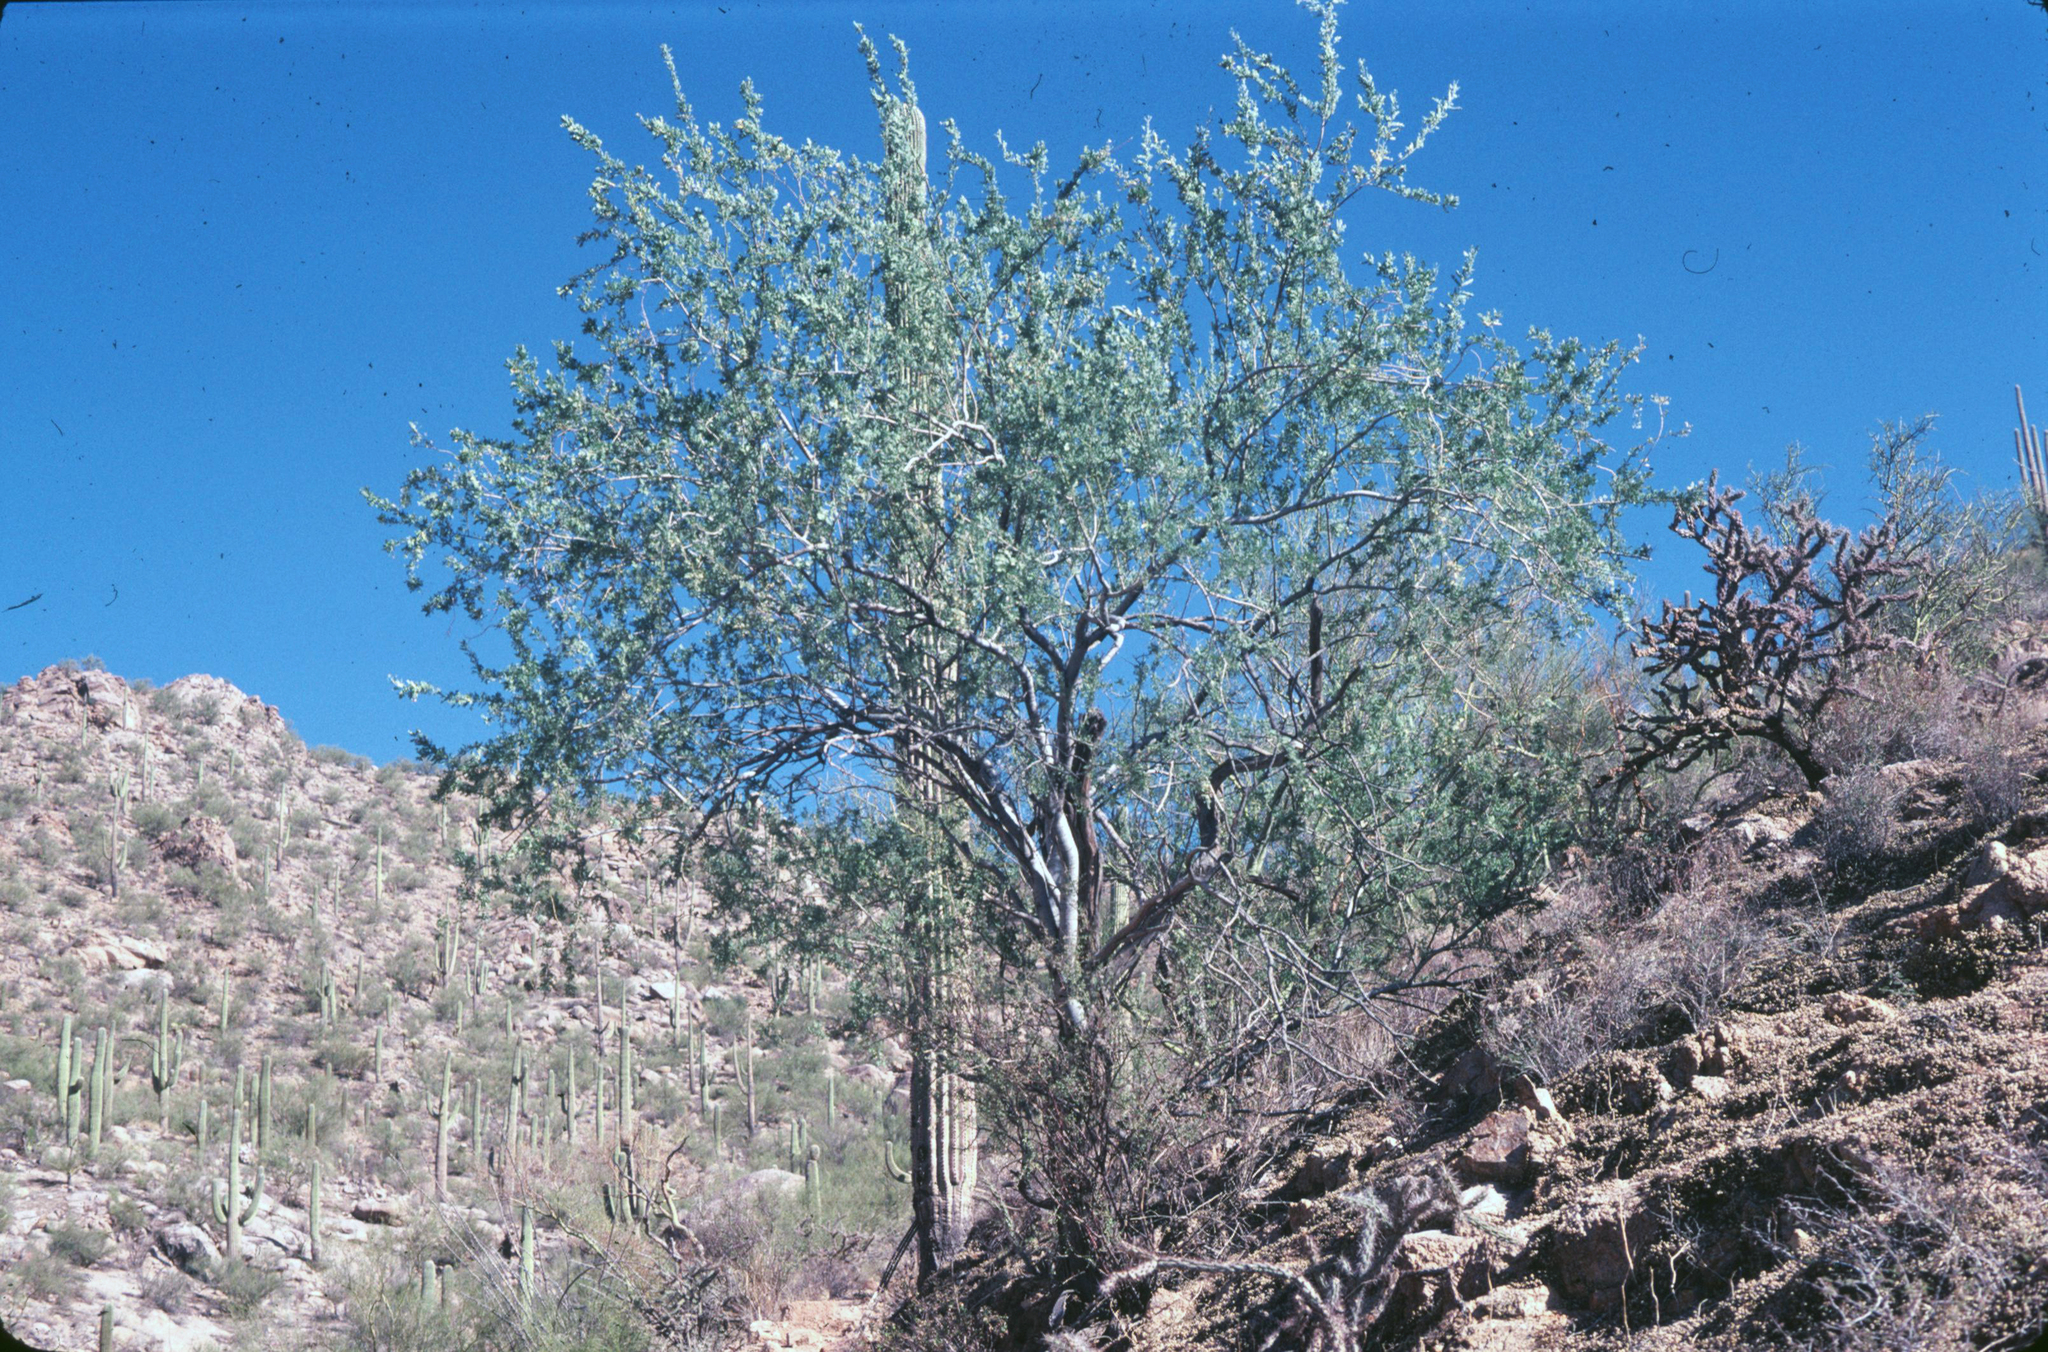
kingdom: Plantae
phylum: Tracheophyta
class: Magnoliopsida
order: Fabales
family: Fabaceae
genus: Olneya
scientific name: Olneya tesota
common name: Desert ironwood
